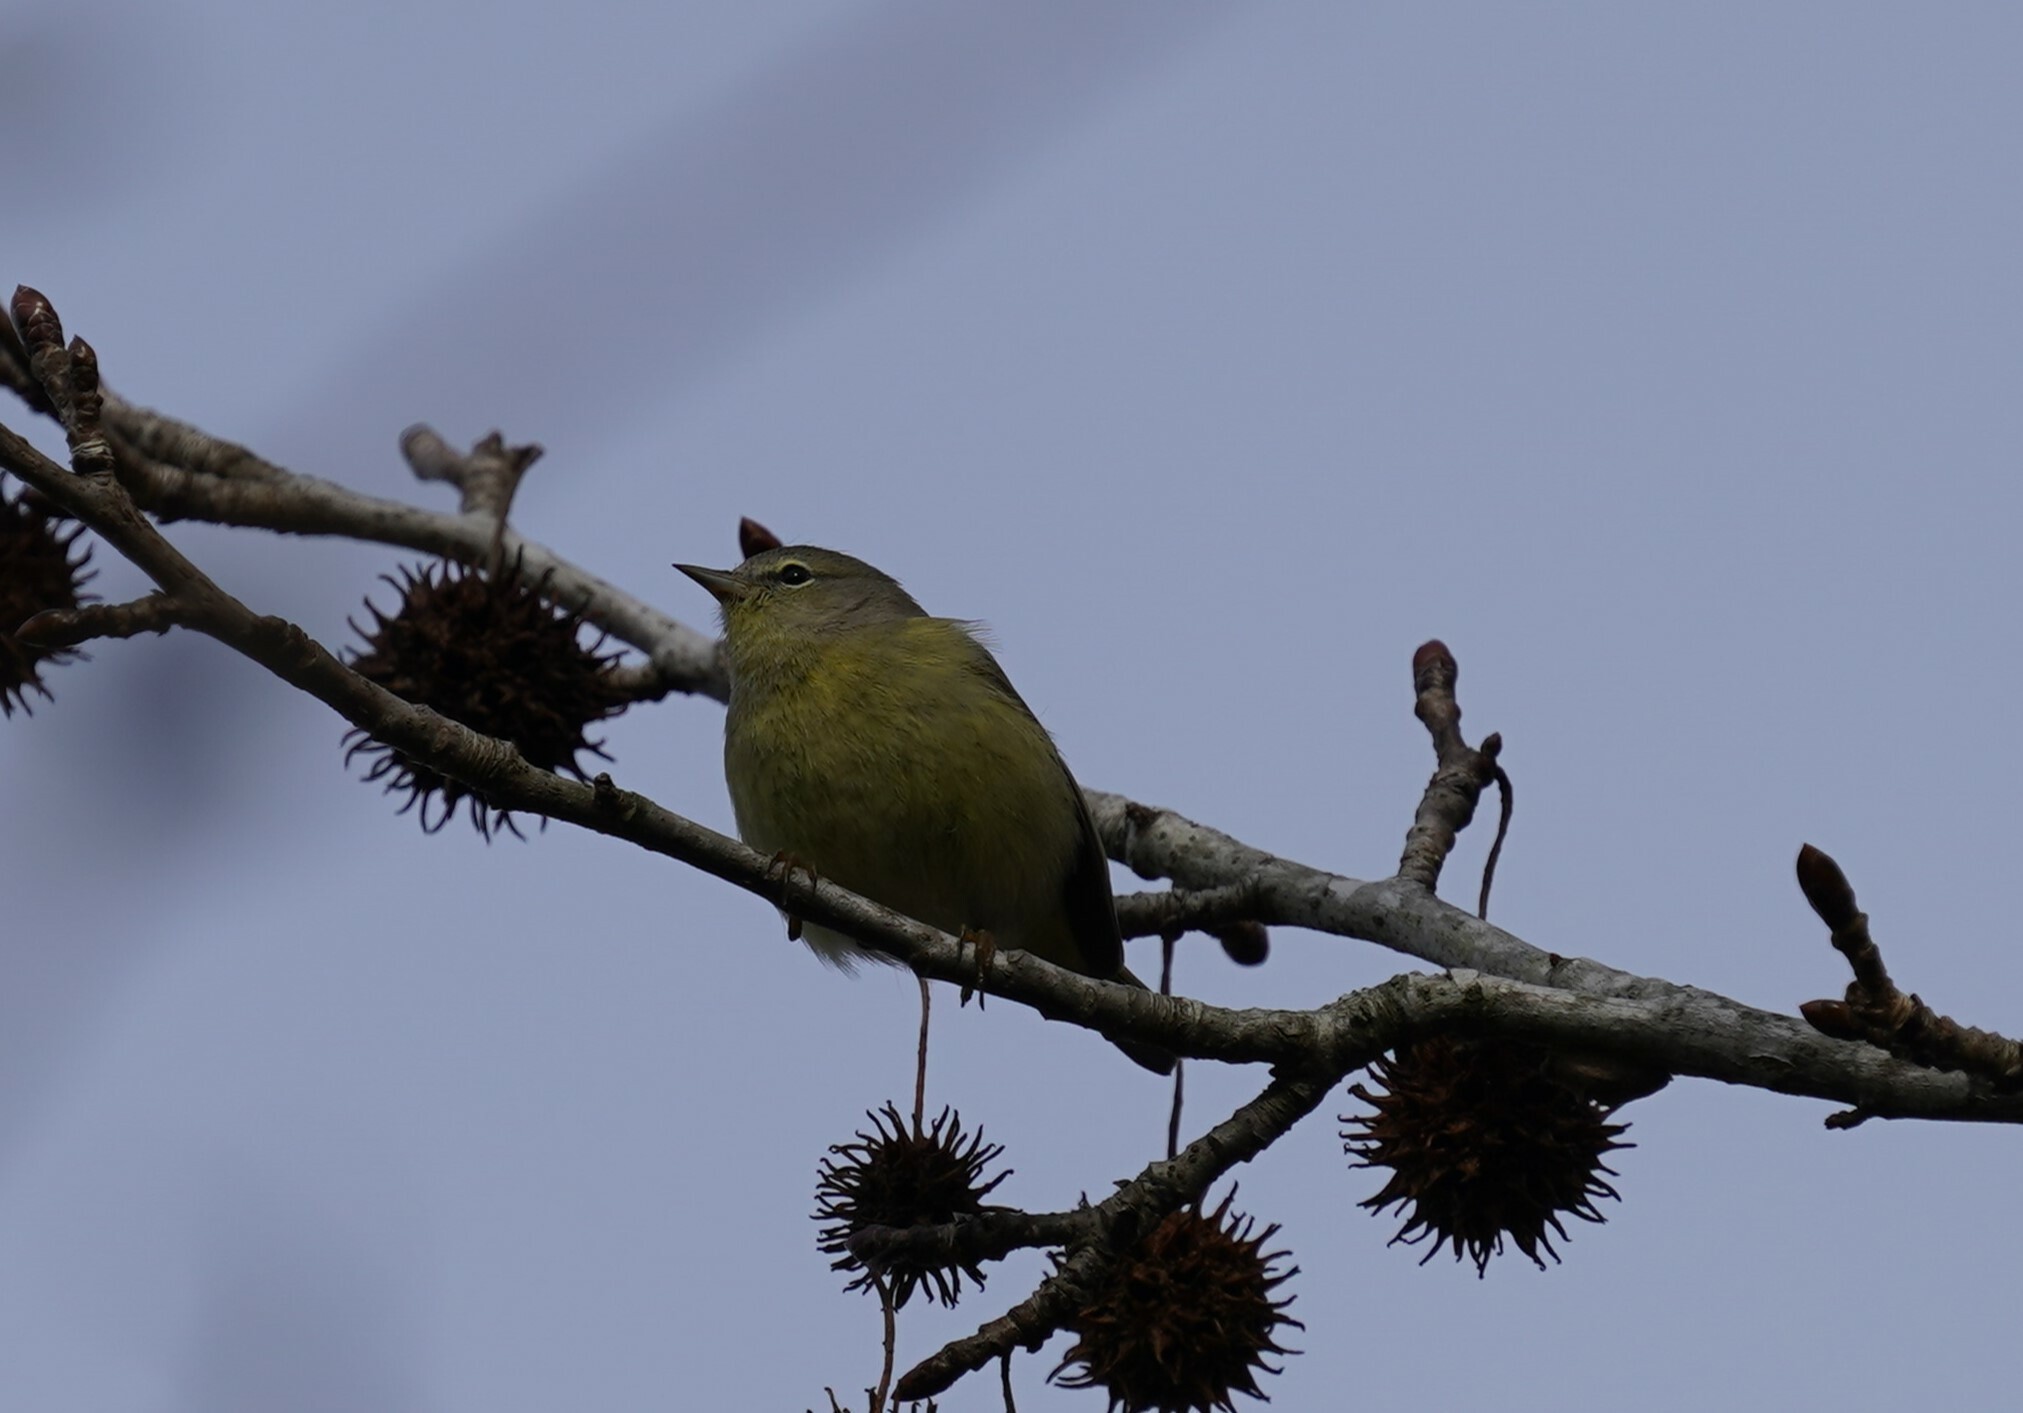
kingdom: Animalia
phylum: Chordata
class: Aves
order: Passeriformes
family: Parulidae
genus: Leiothlypis
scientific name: Leiothlypis celata
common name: Orange-crowned warbler
